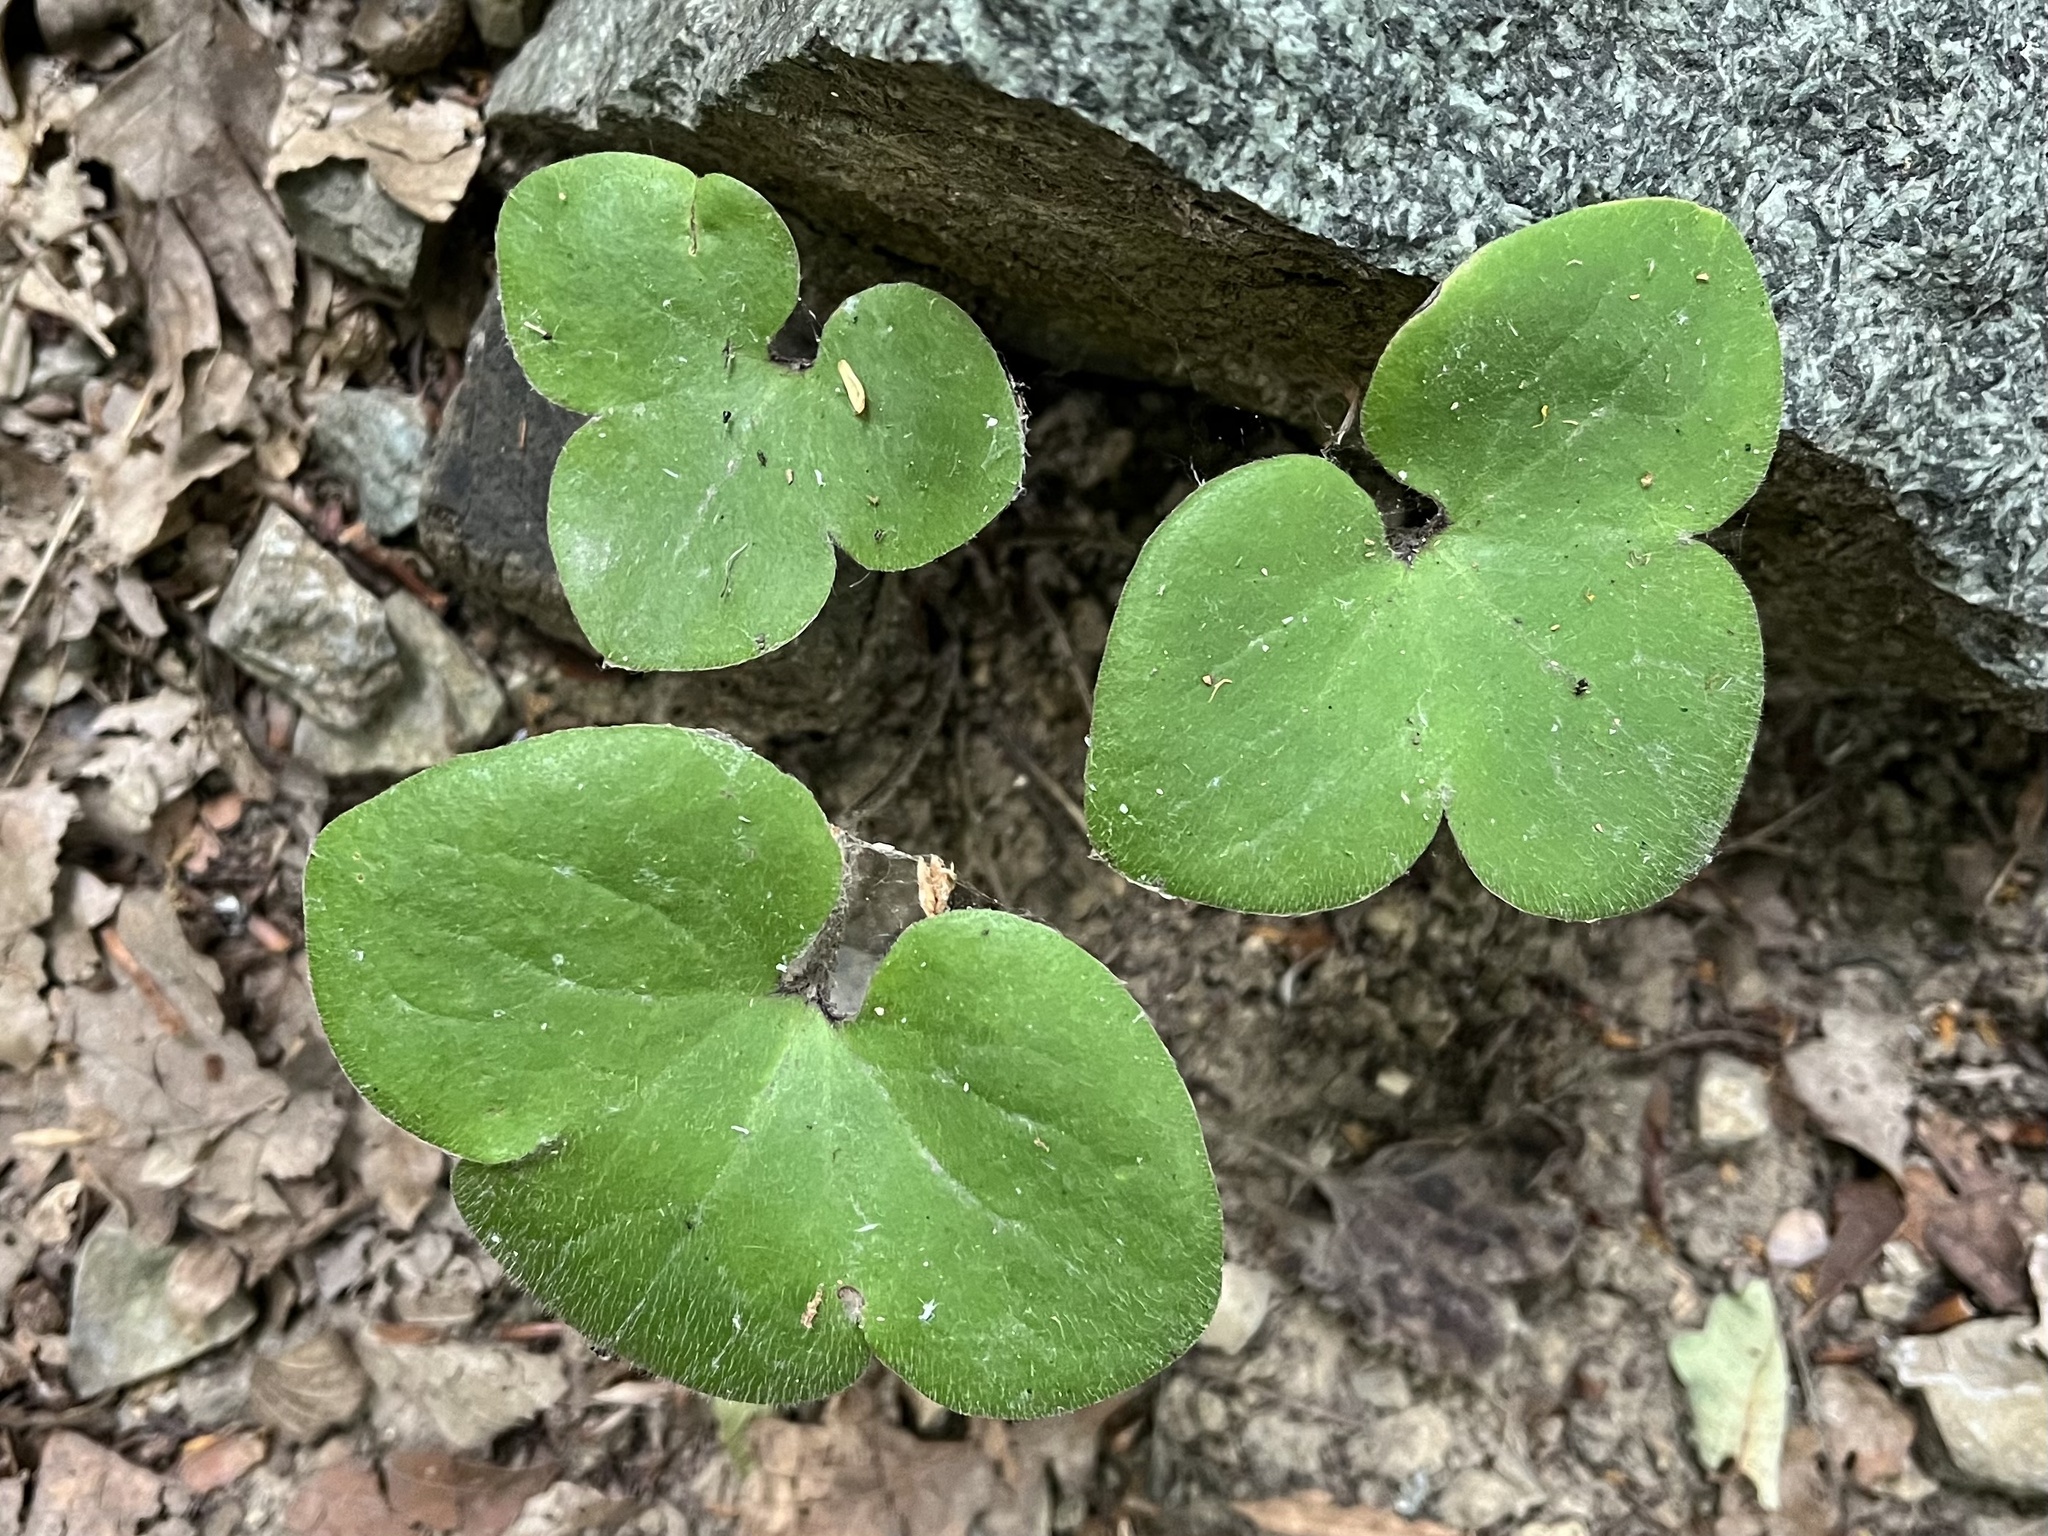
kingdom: Plantae
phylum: Tracheophyta
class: Magnoliopsida
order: Ranunculales
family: Ranunculaceae
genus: Hepatica
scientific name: Hepatica nobilis
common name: Liverleaf
